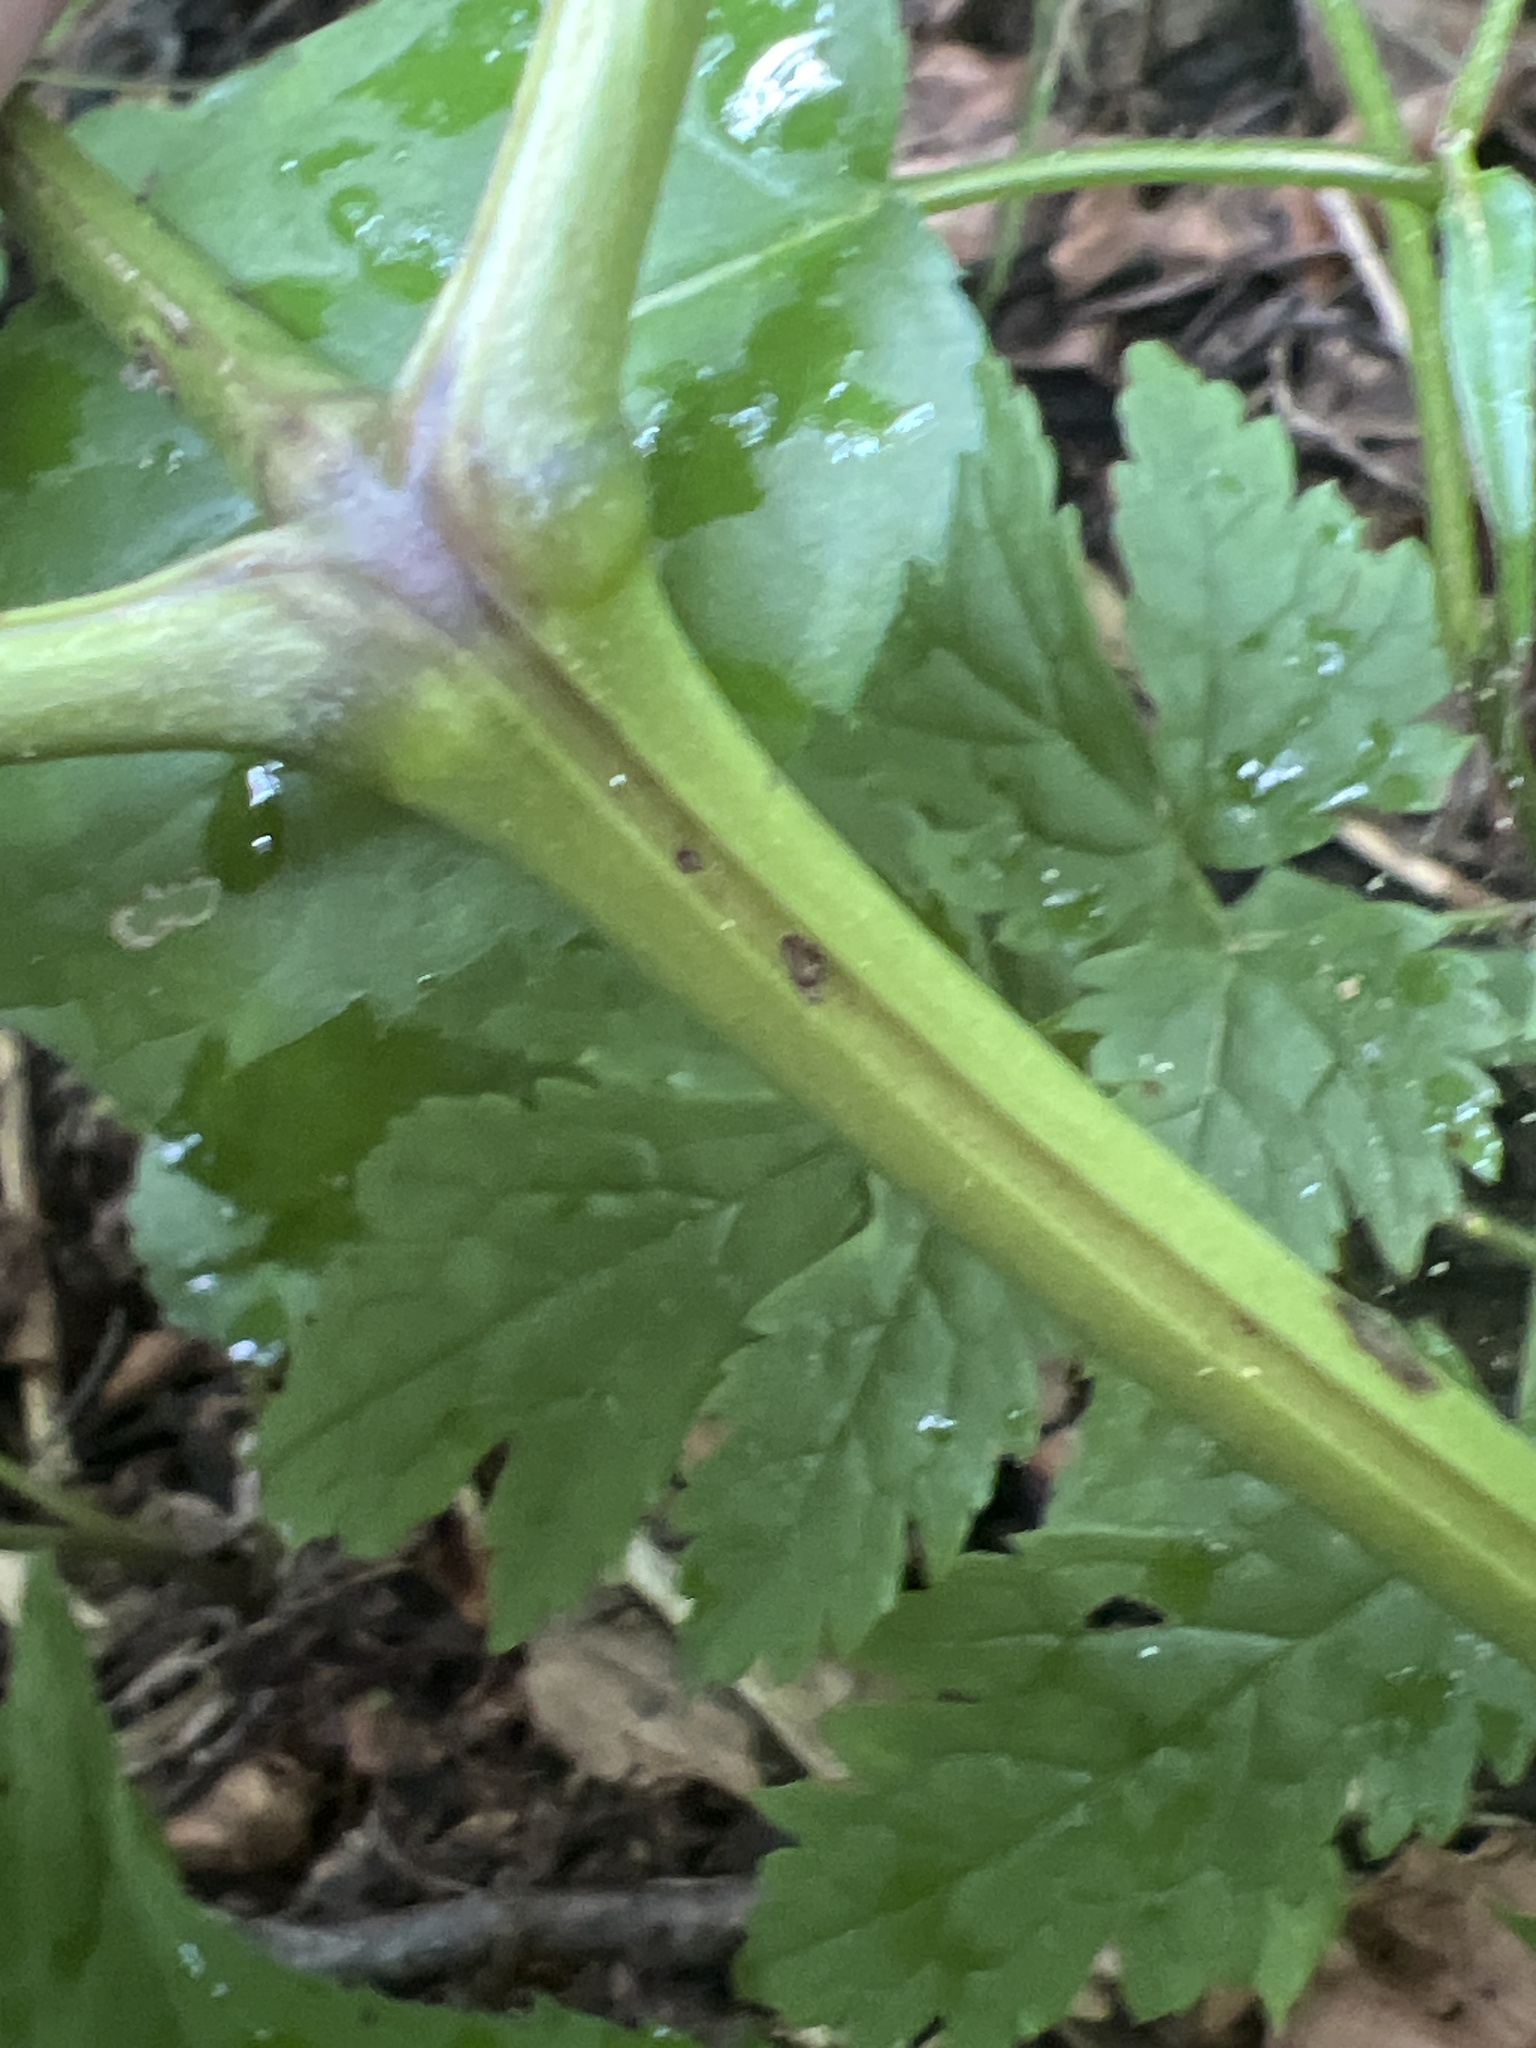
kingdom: Plantae
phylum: Tracheophyta
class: Magnoliopsida
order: Ranunculales
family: Ranunculaceae
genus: Actaea
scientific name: Actaea podocarpa
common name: American bugbane
